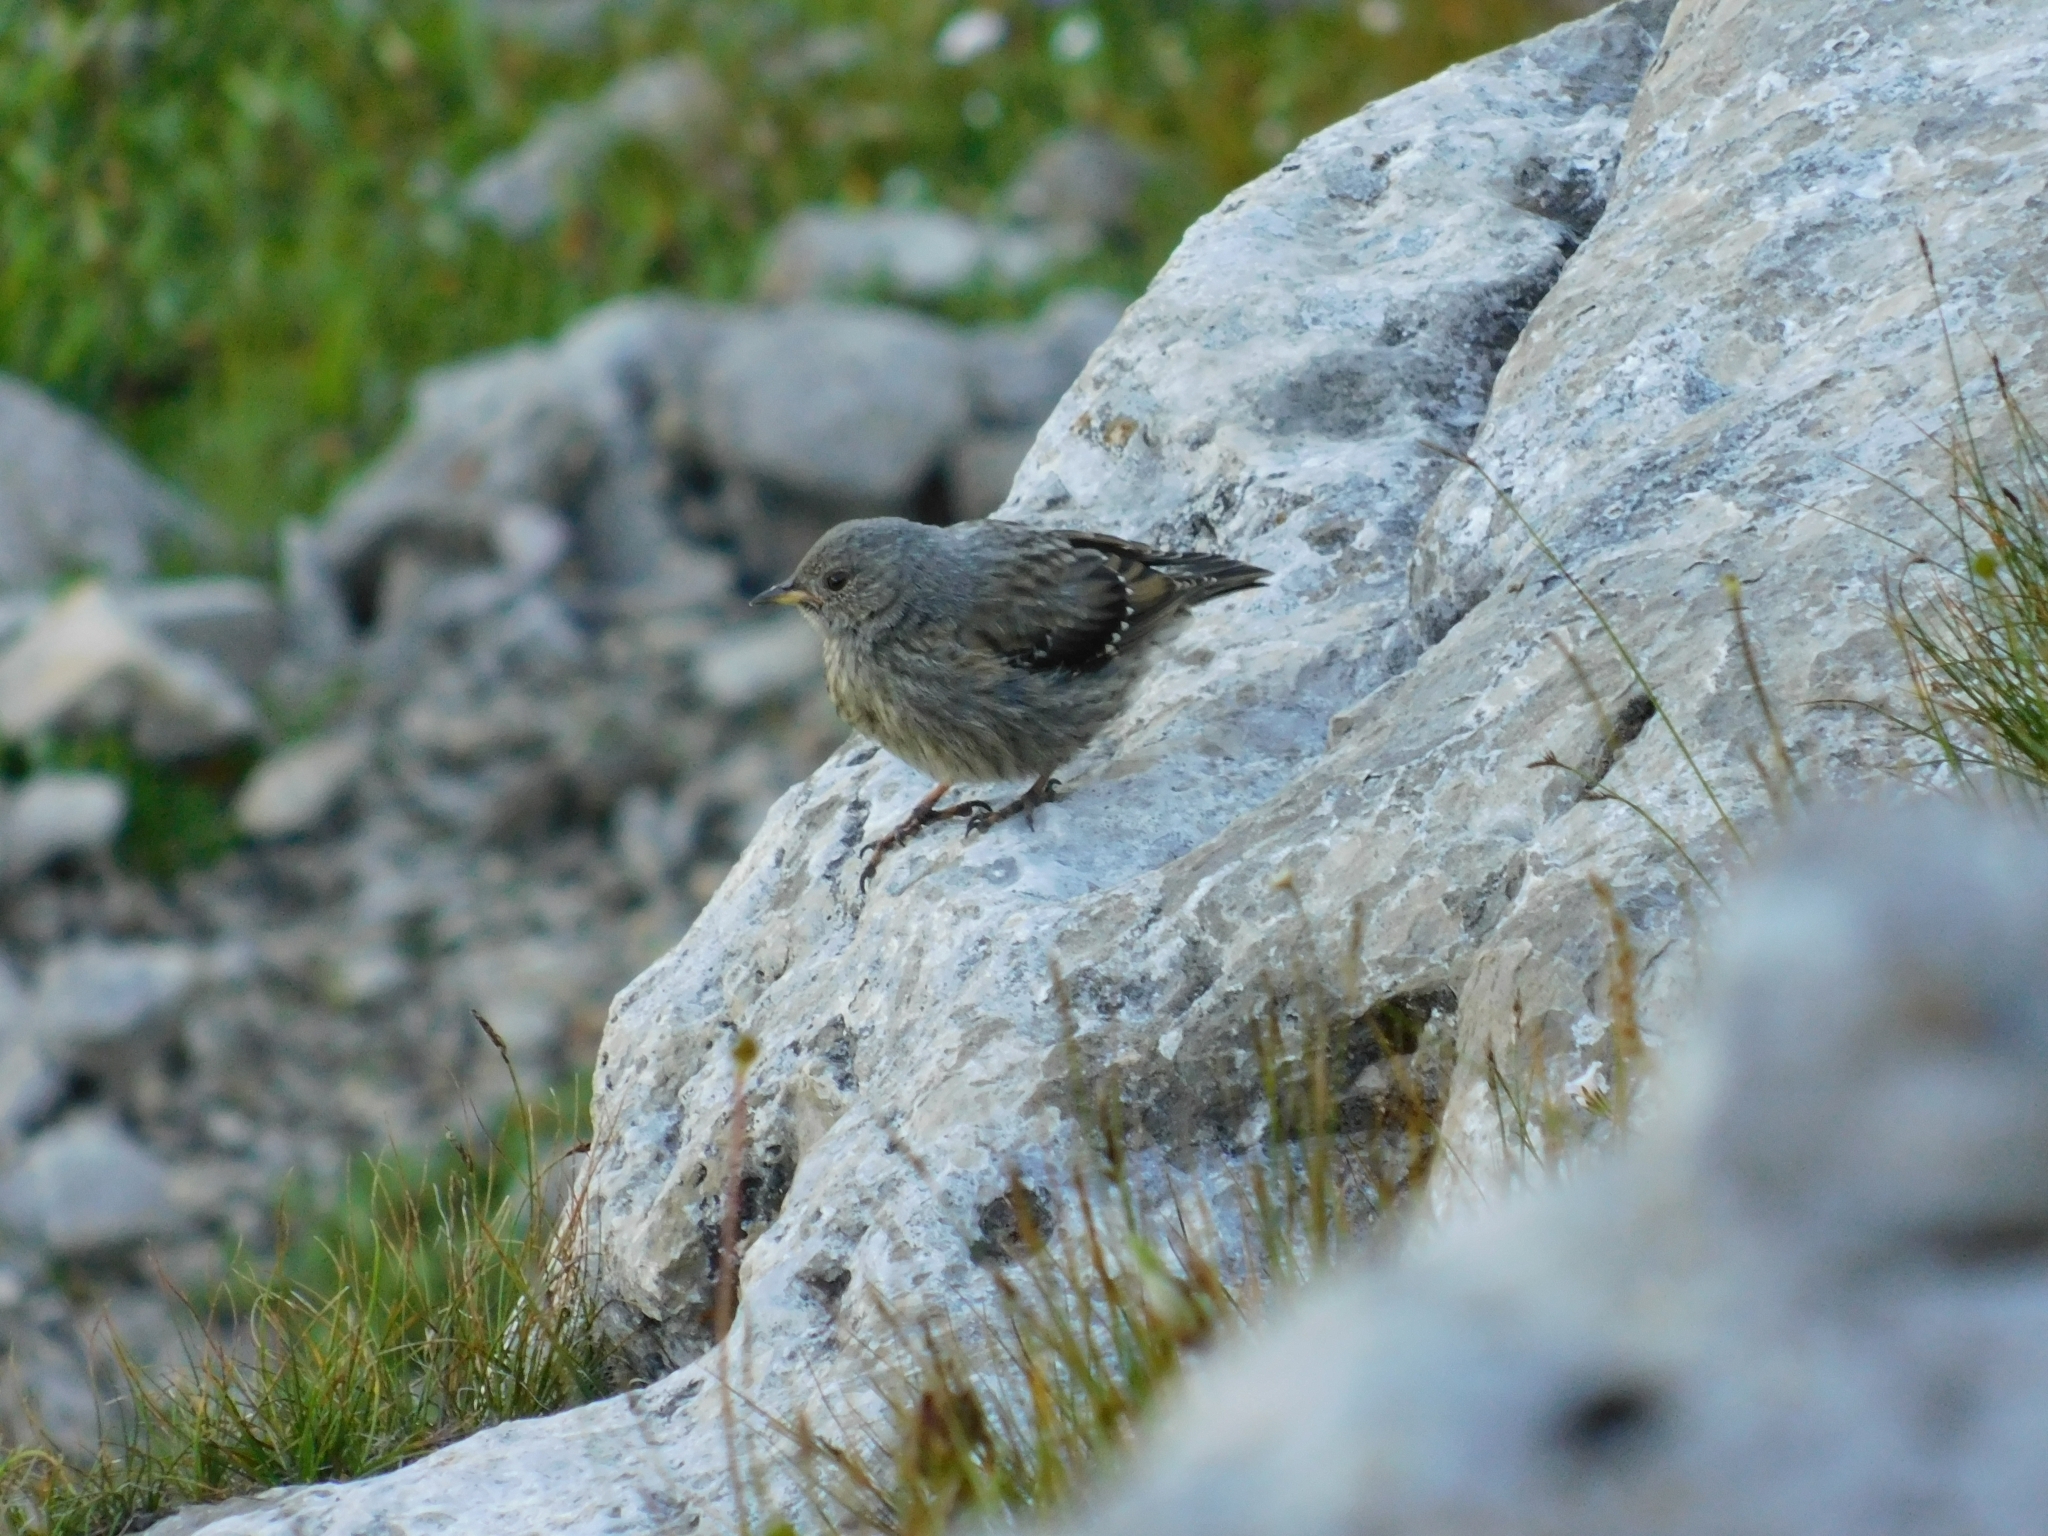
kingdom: Animalia
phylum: Chordata
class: Aves
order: Passeriformes
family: Prunellidae
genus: Prunella
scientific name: Prunella collaris
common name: Alpine accentor
